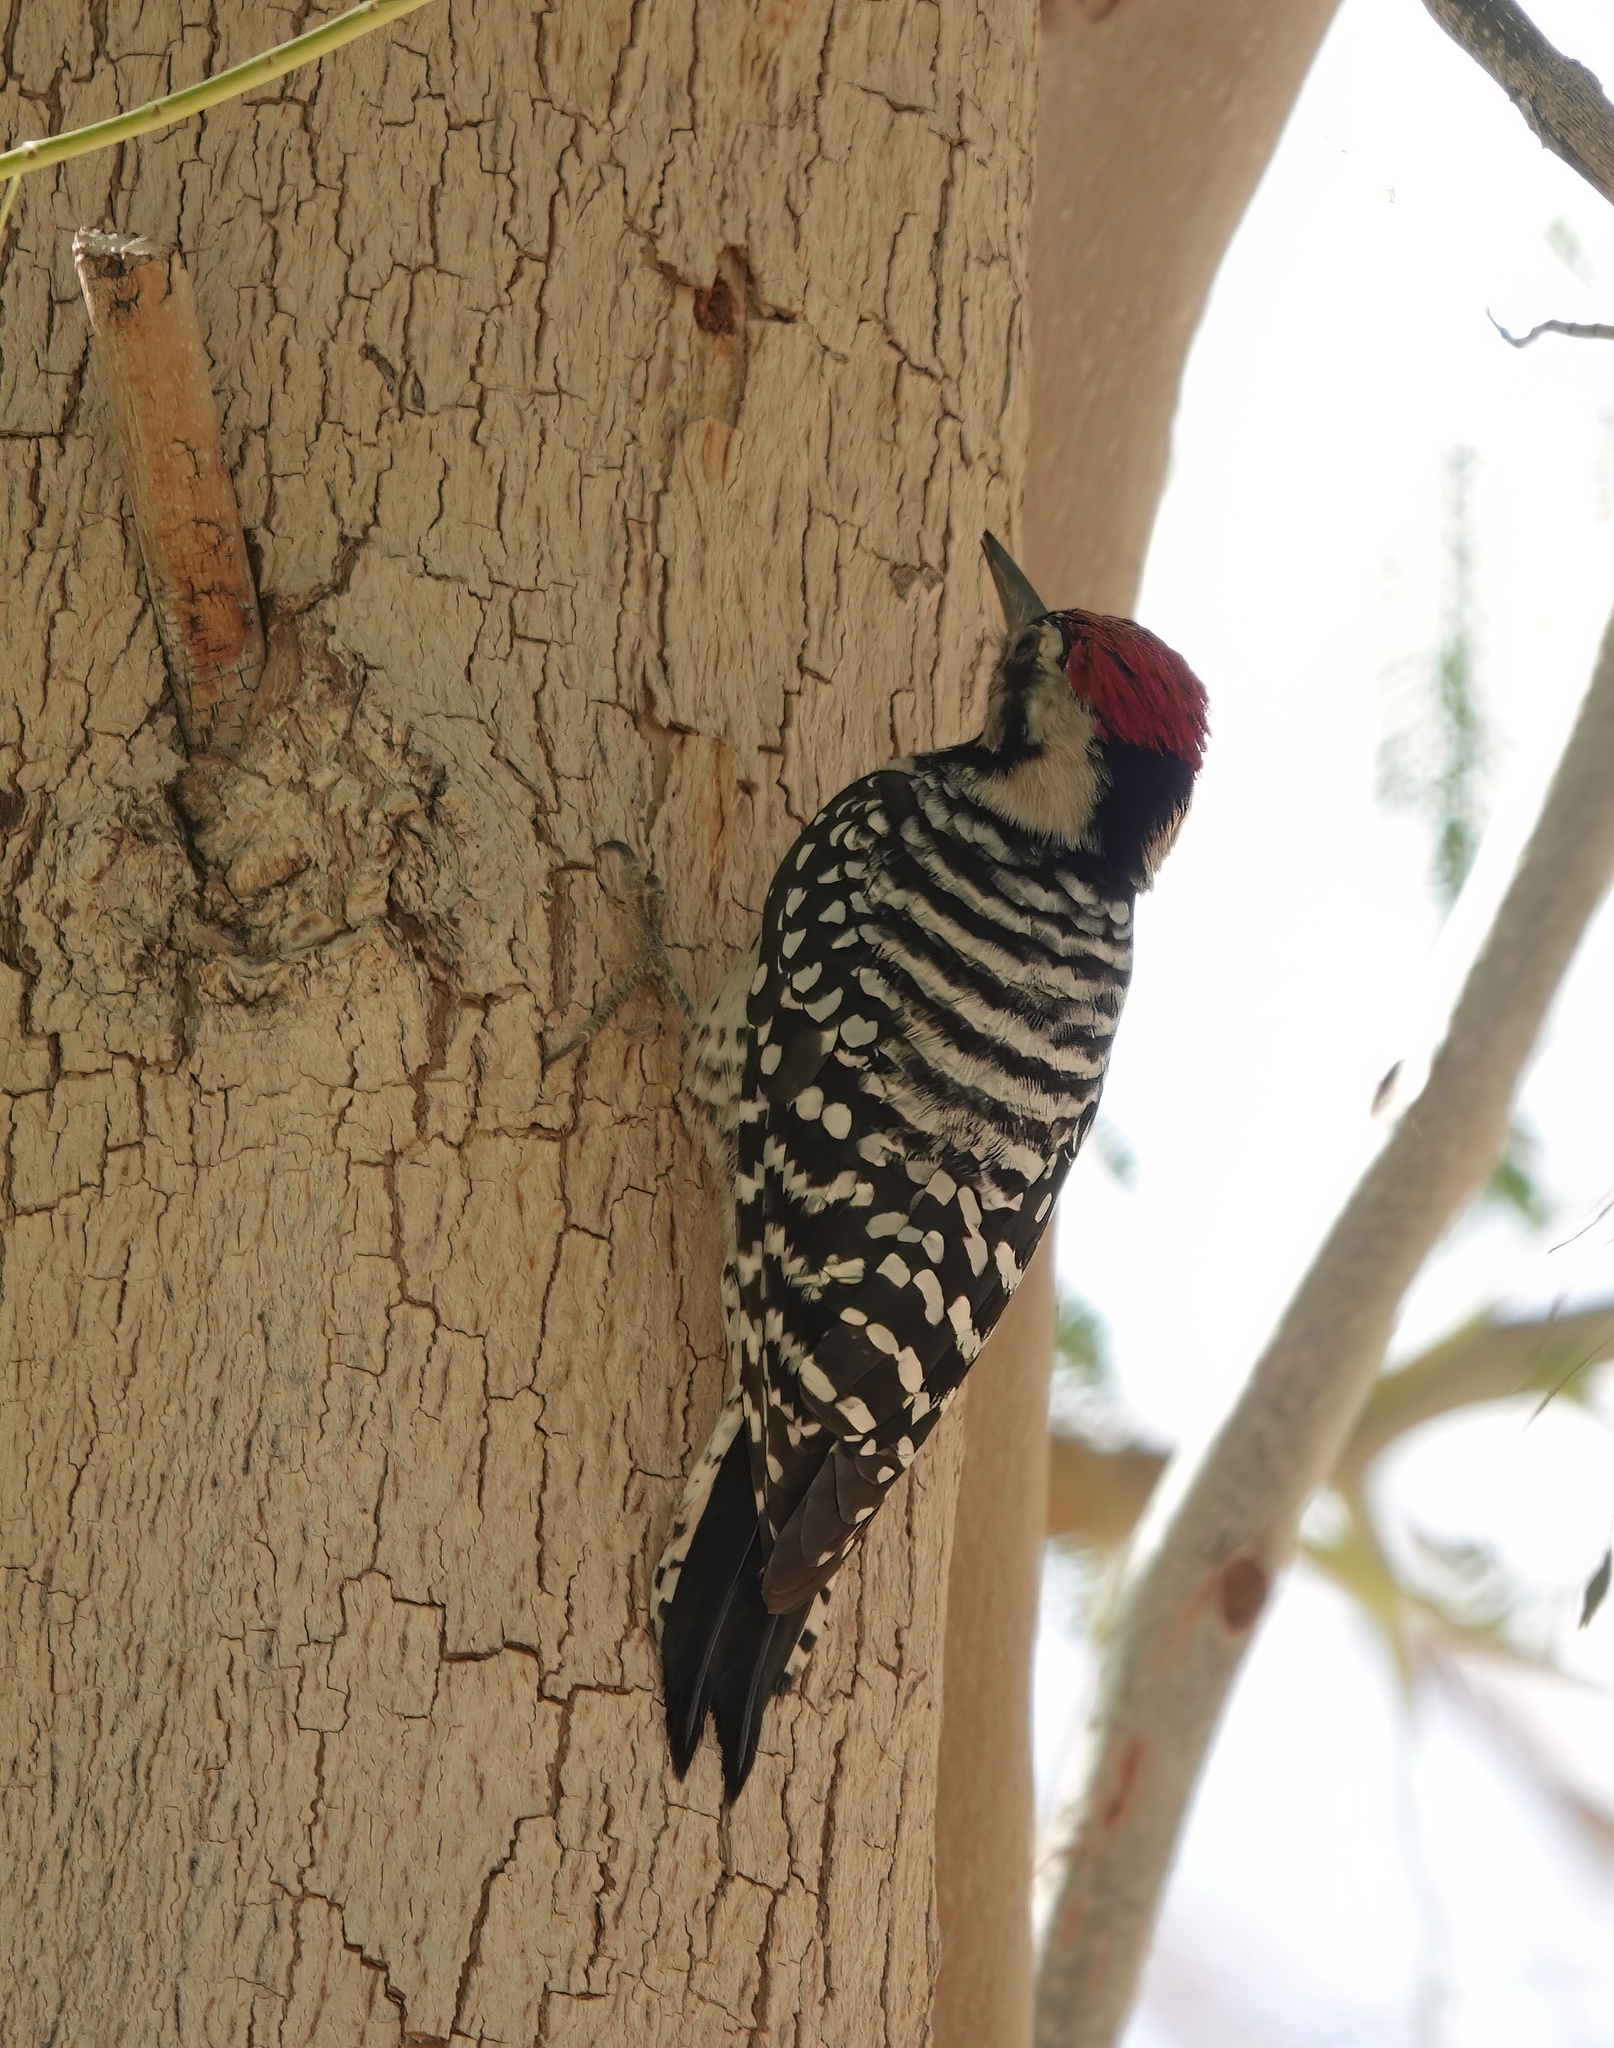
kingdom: Animalia
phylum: Chordata
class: Aves
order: Piciformes
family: Picidae
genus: Dryobates
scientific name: Dryobates scalaris
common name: Ladder-backed woodpecker
